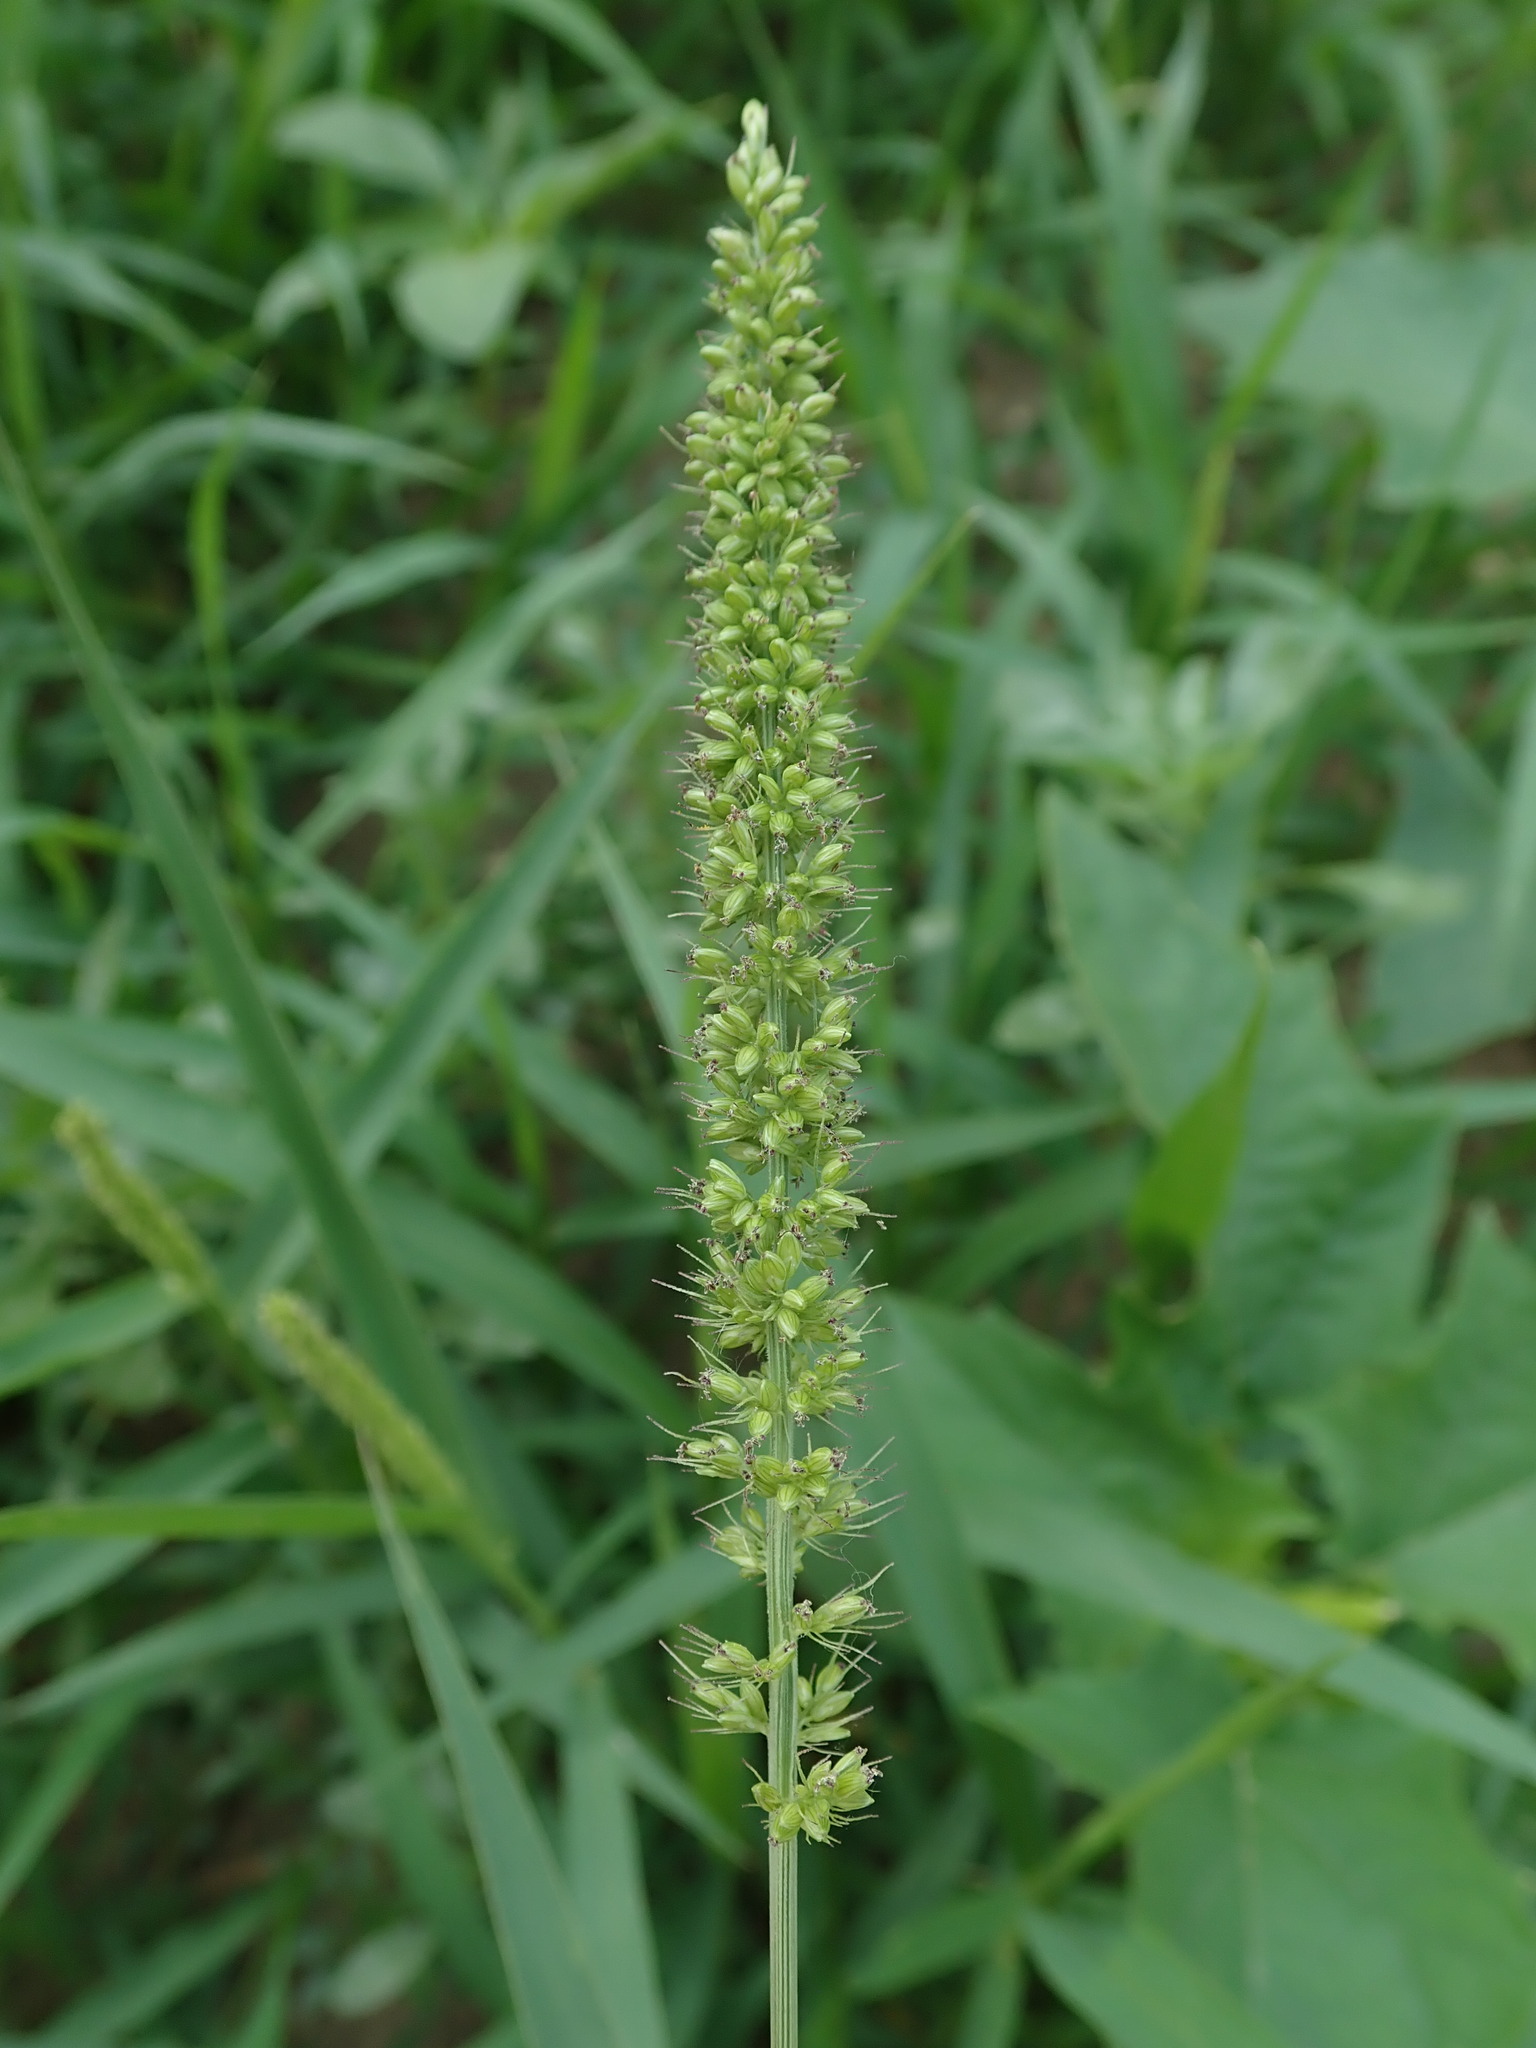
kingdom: Plantae
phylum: Tracheophyta
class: Liliopsida
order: Poales
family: Poaceae
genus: Setaria
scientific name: Setaria verticillata
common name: Hooked bristlegrass
